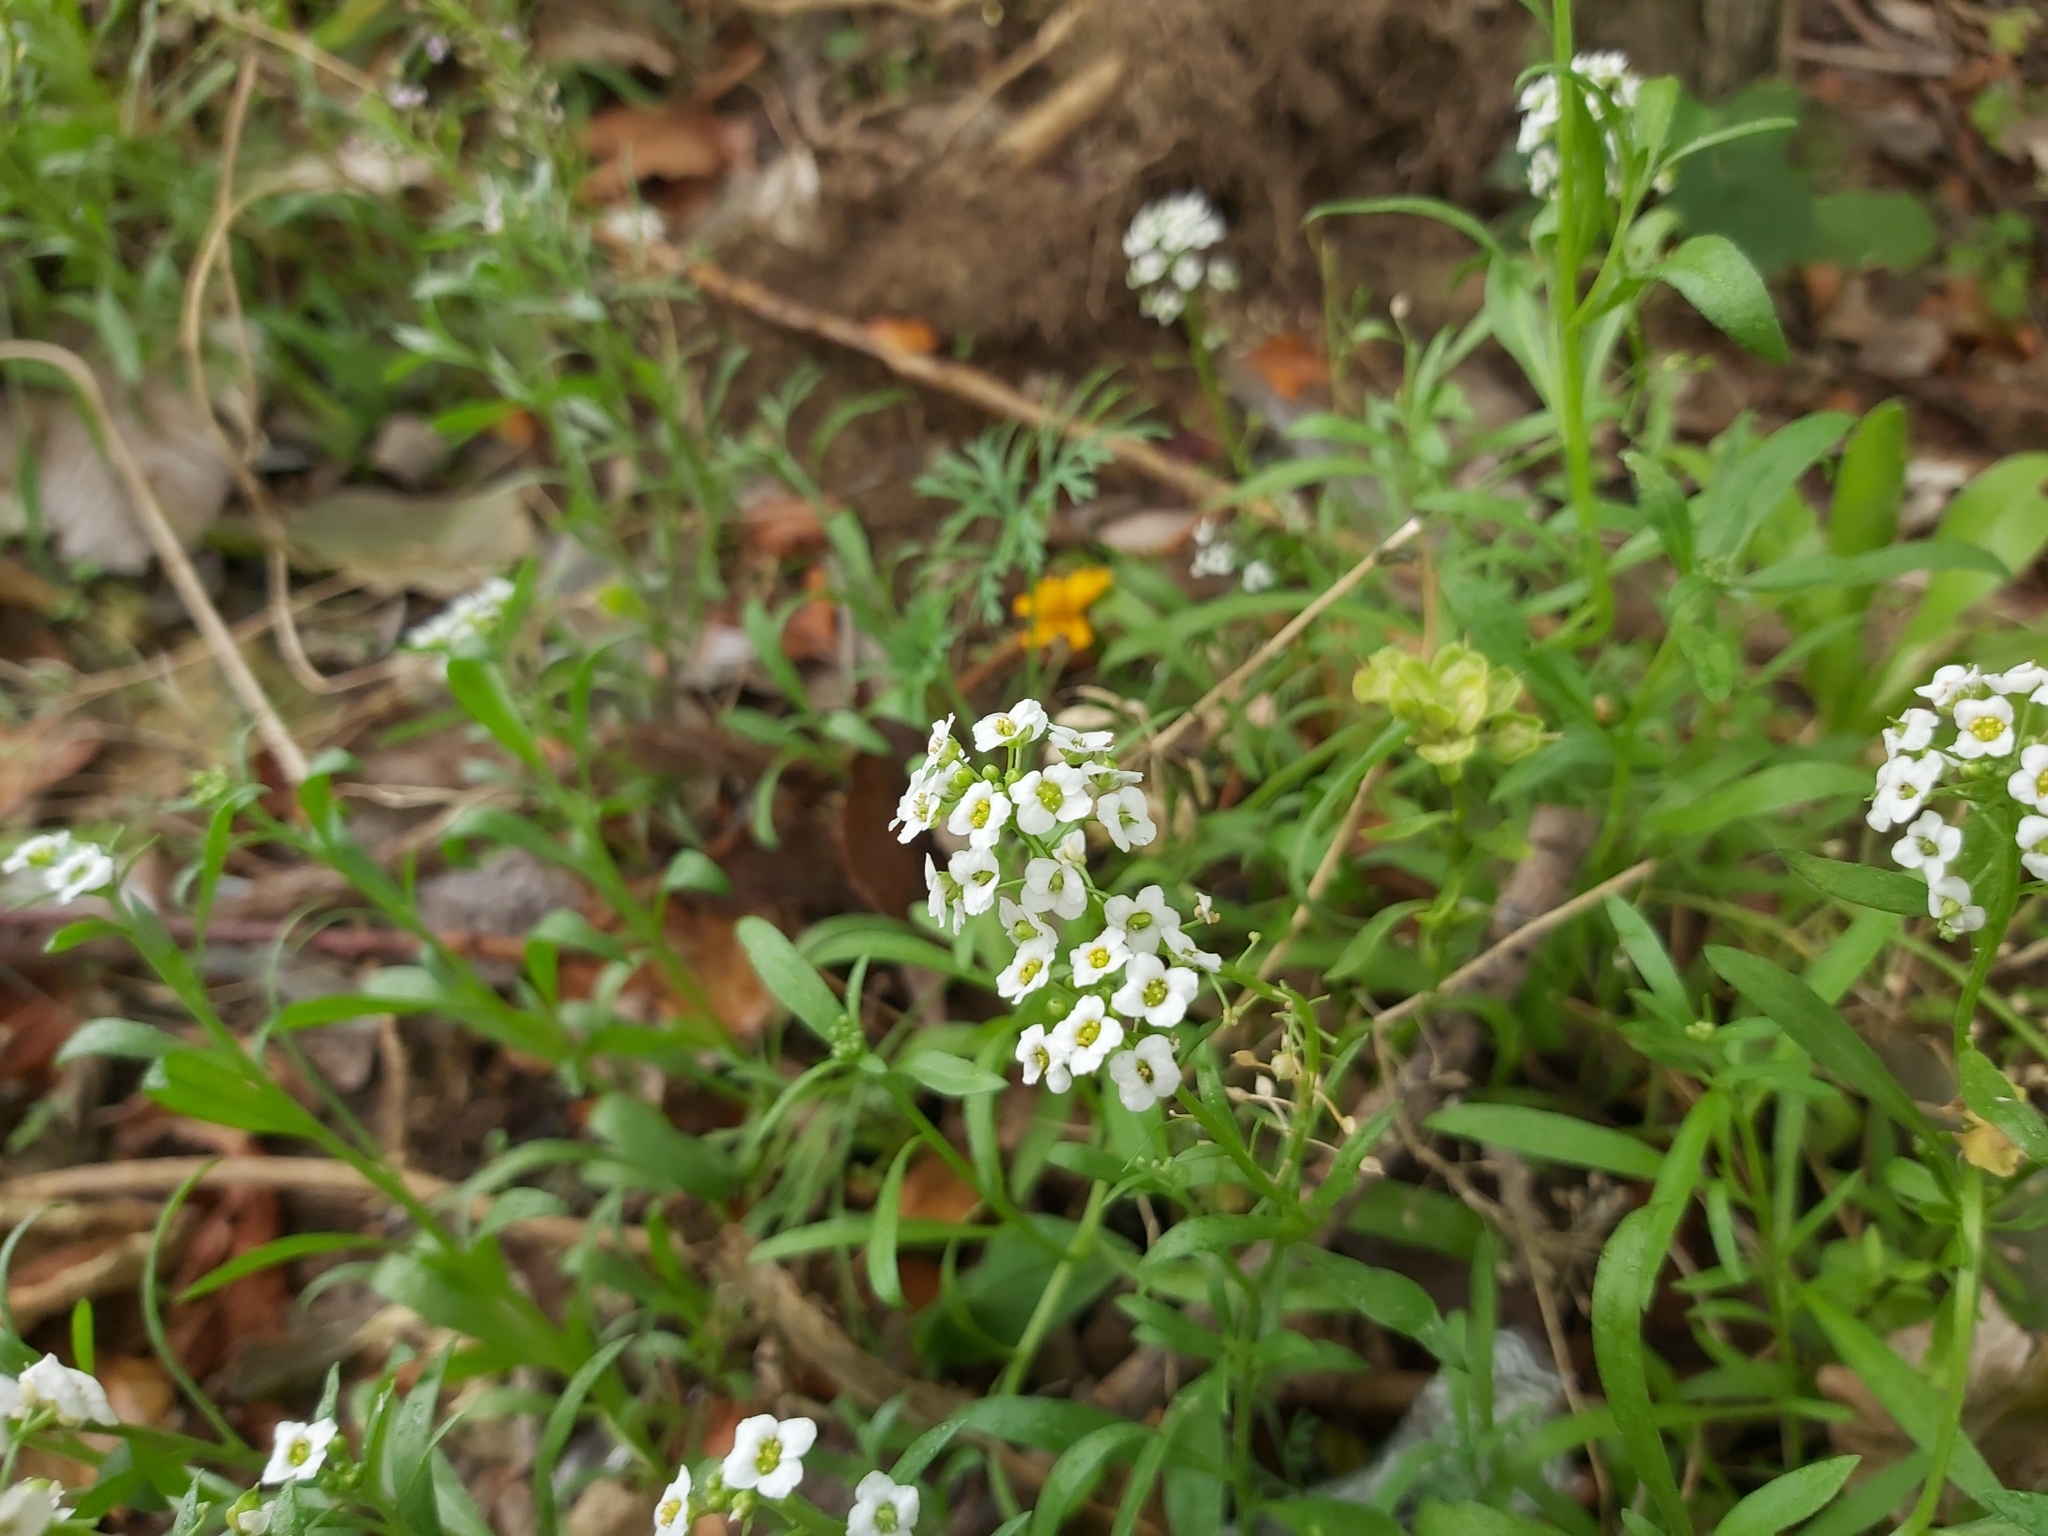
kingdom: Plantae
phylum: Tracheophyta
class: Magnoliopsida
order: Brassicales
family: Brassicaceae
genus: Lobularia
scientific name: Lobularia maritima
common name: Sweet alison
